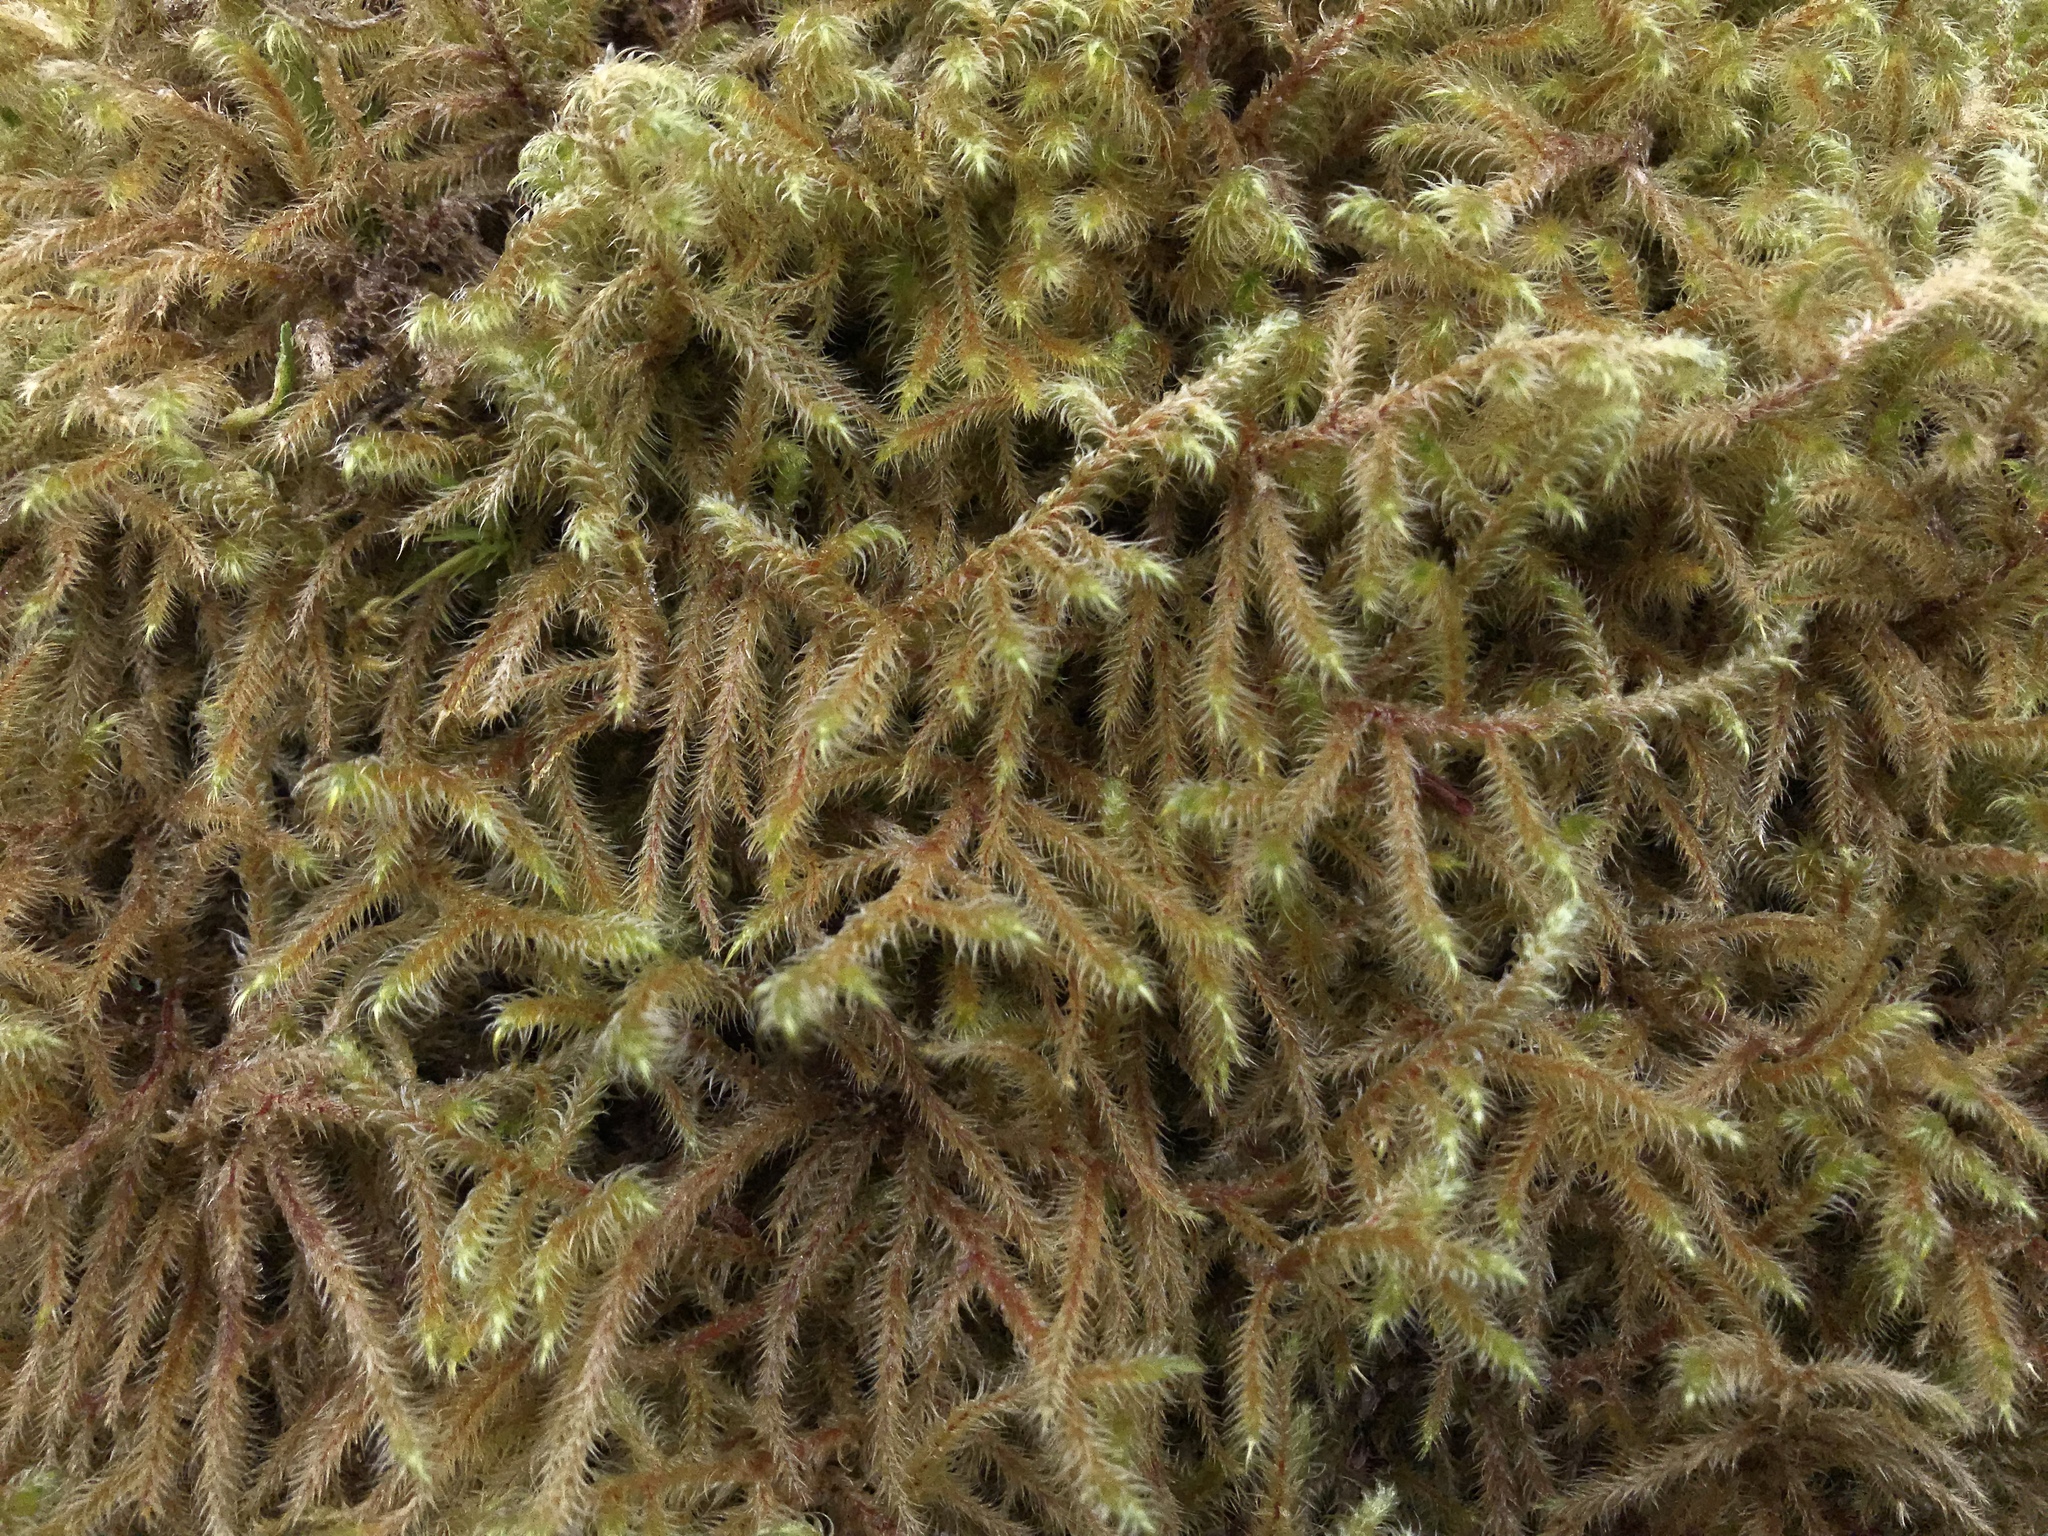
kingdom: Plantae
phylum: Bryophyta
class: Bryopsida
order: Hypnales
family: Hylocomiaceae
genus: Rhytidiadelphus
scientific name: Rhytidiadelphus loreus
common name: Lanky moss
